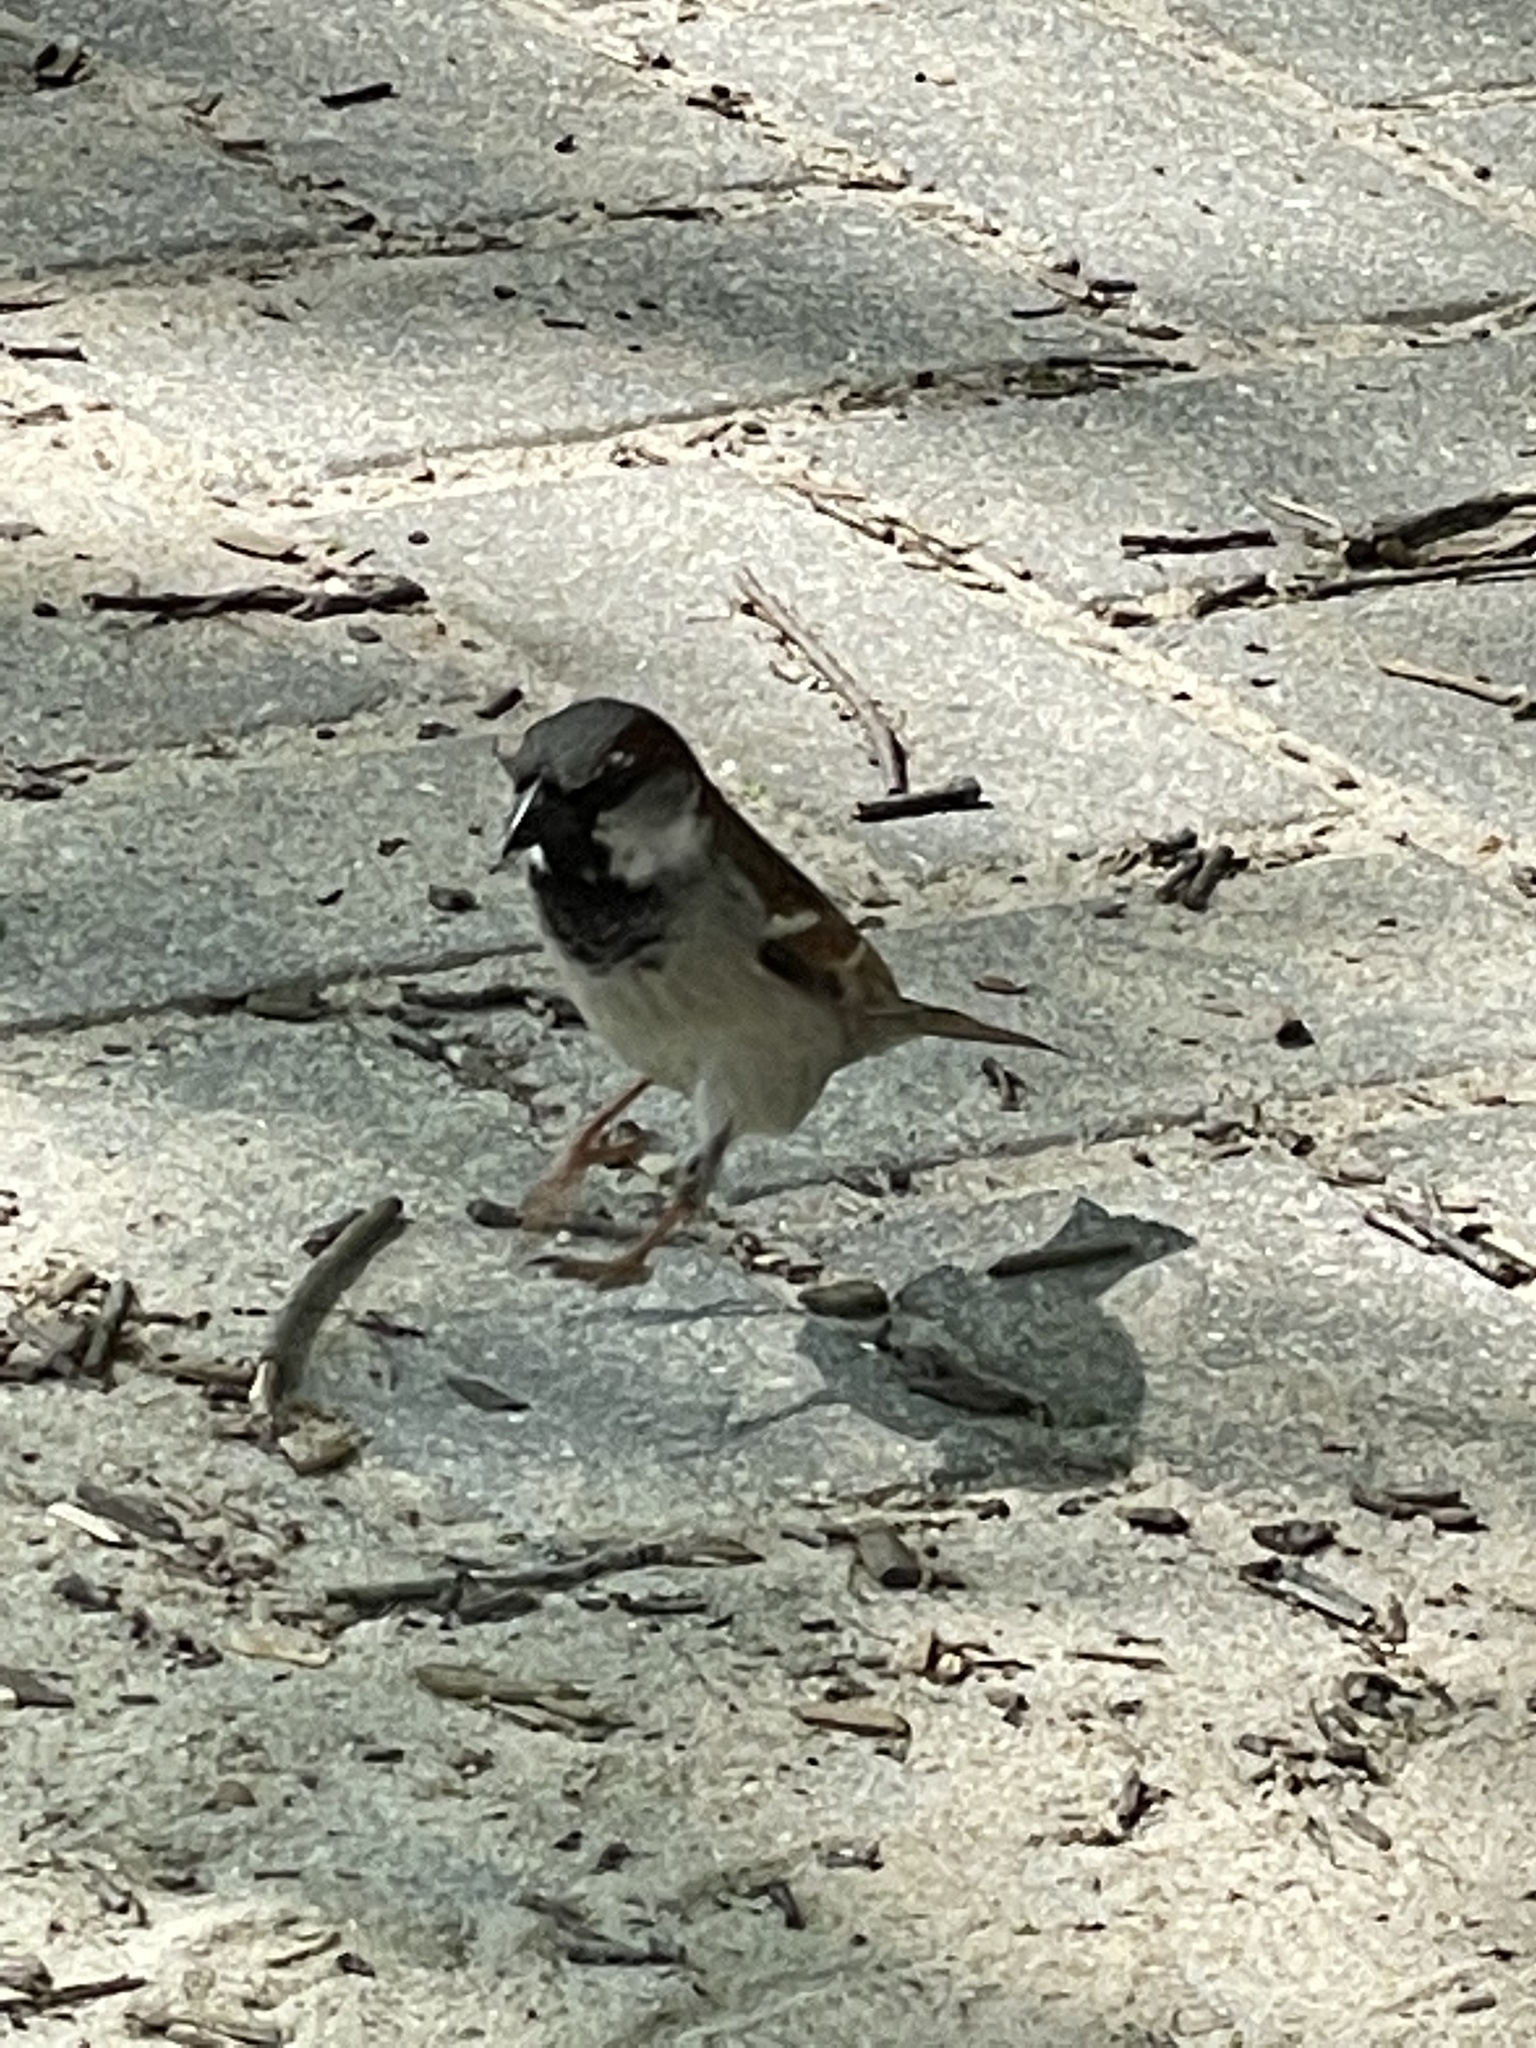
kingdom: Animalia
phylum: Chordata
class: Aves
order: Passeriformes
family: Passeridae
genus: Passer
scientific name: Passer domesticus
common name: House sparrow
